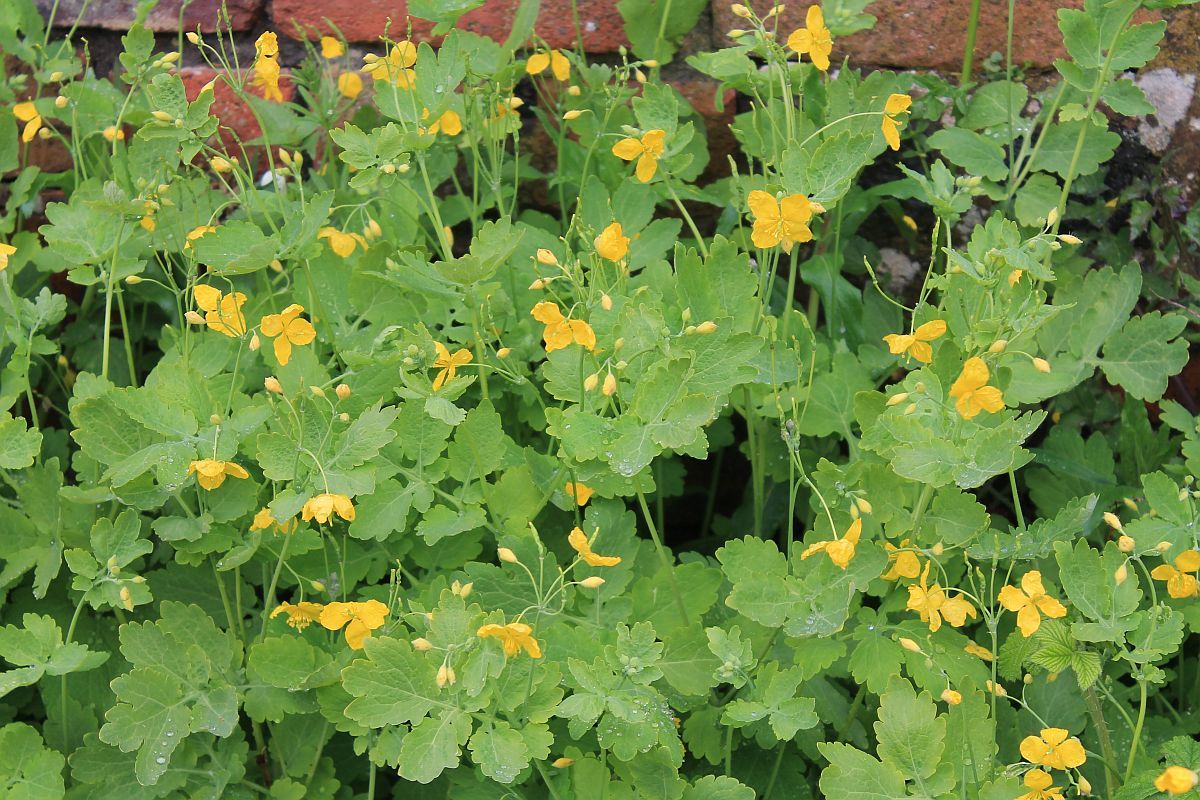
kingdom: Plantae
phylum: Tracheophyta
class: Magnoliopsida
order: Ranunculales
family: Papaveraceae
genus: Chelidonium
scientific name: Chelidonium majus
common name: Greater celandine
